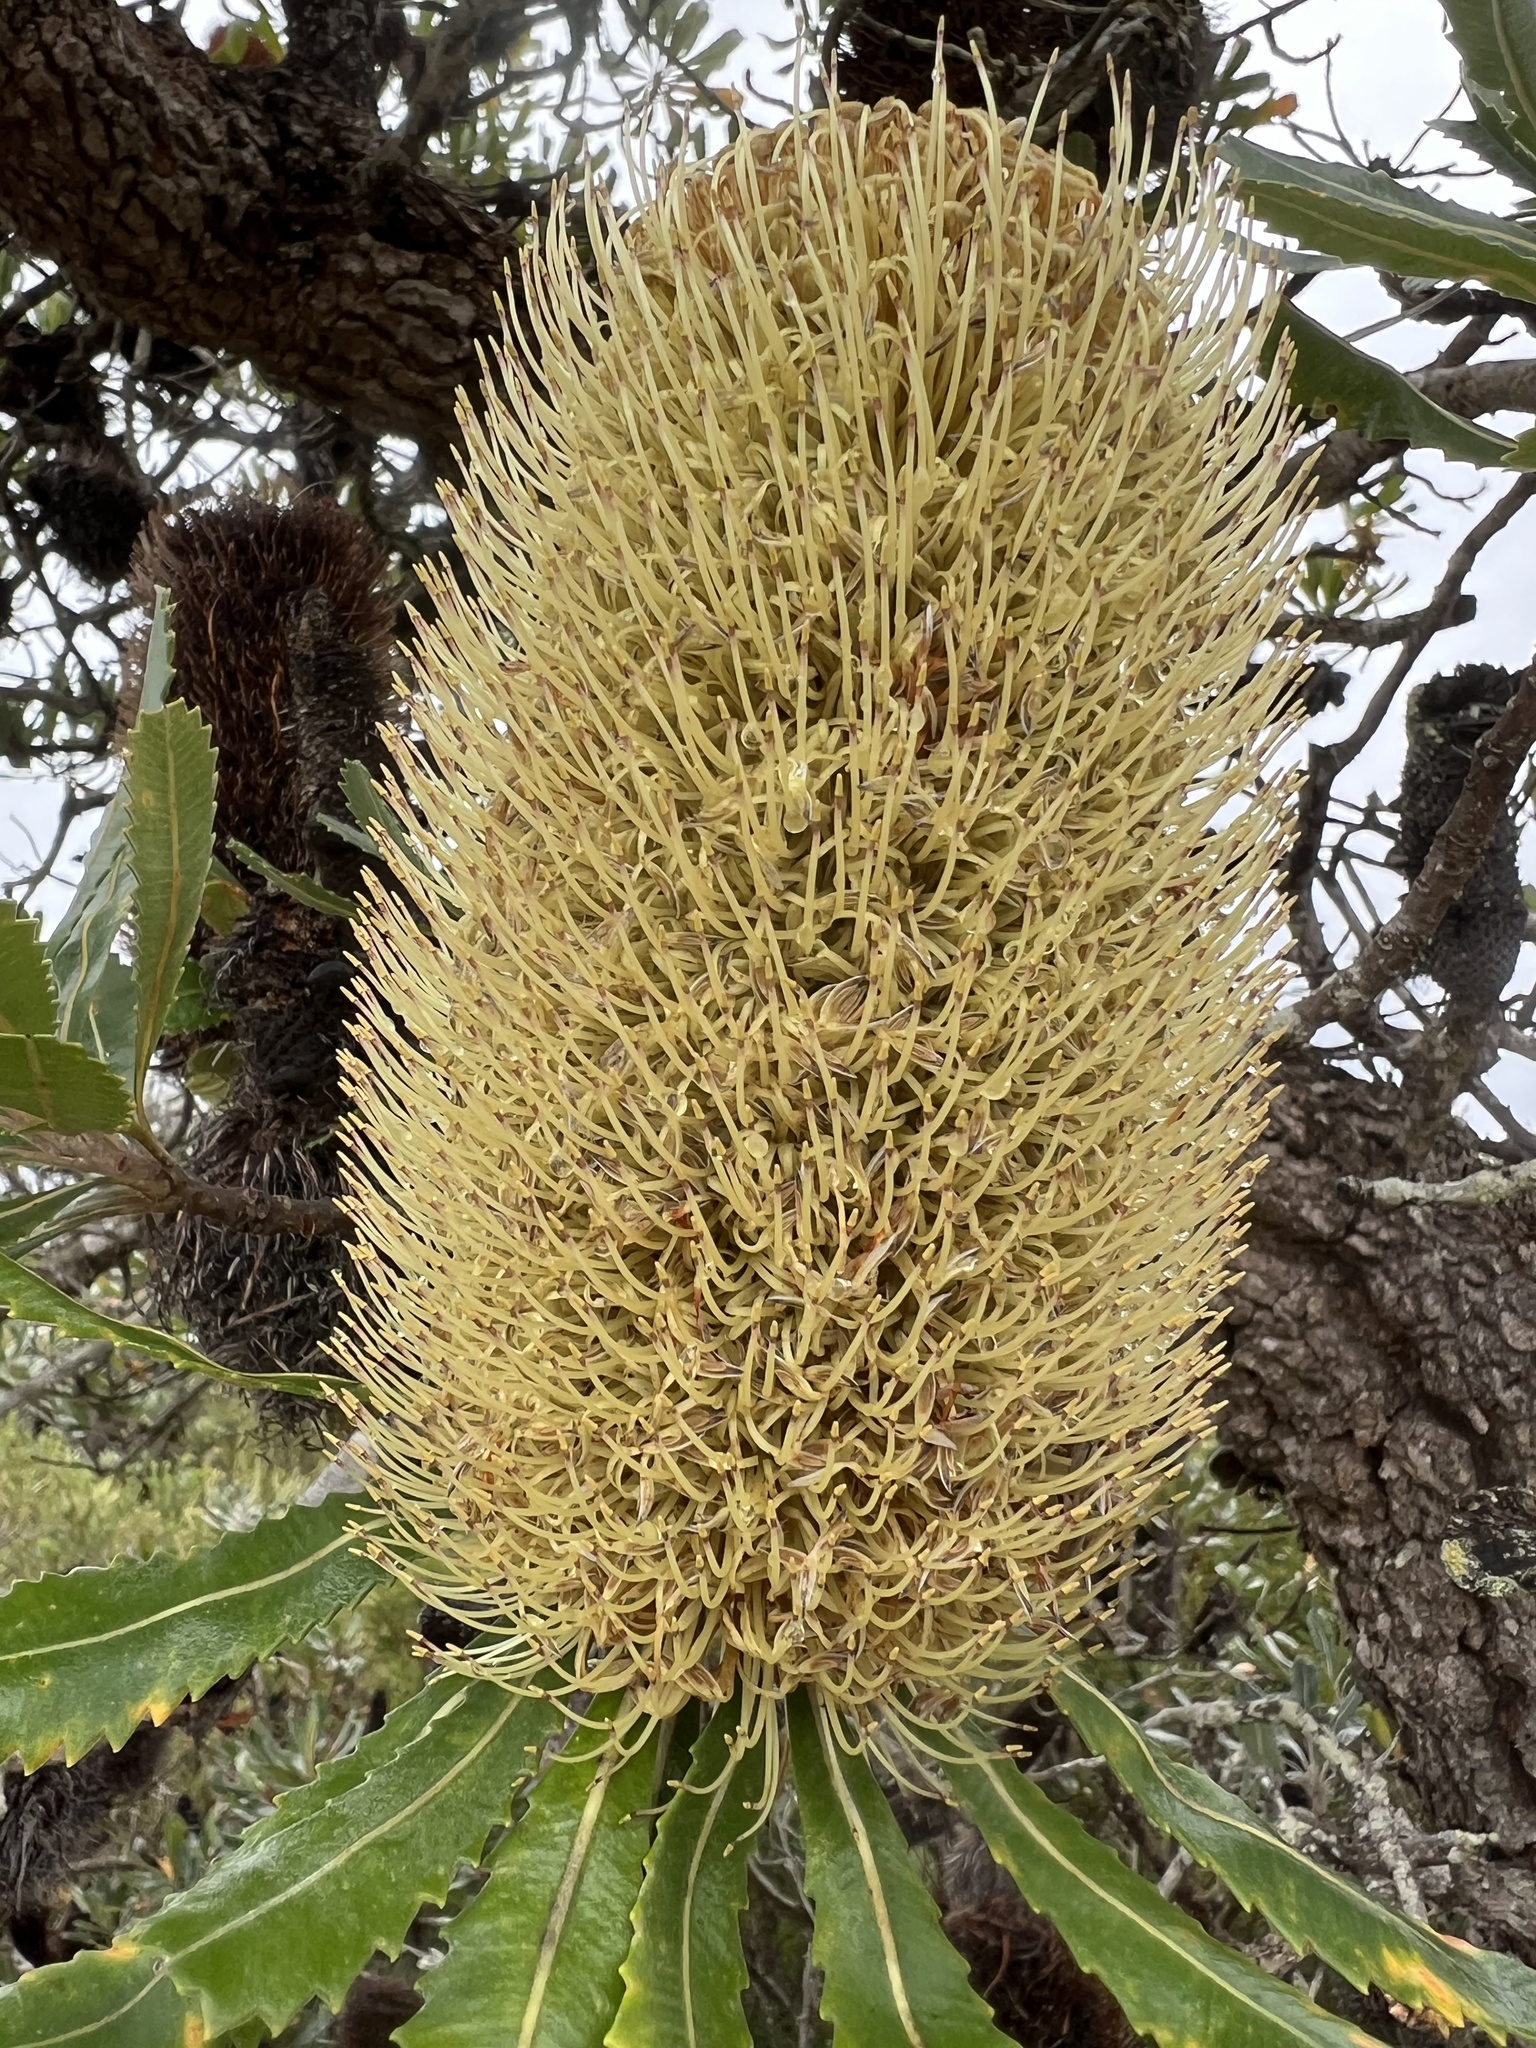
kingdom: Plantae
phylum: Tracheophyta
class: Magnoliopsida
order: Proteales
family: Proteaceae
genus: Banksia
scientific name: Banksia serrata
